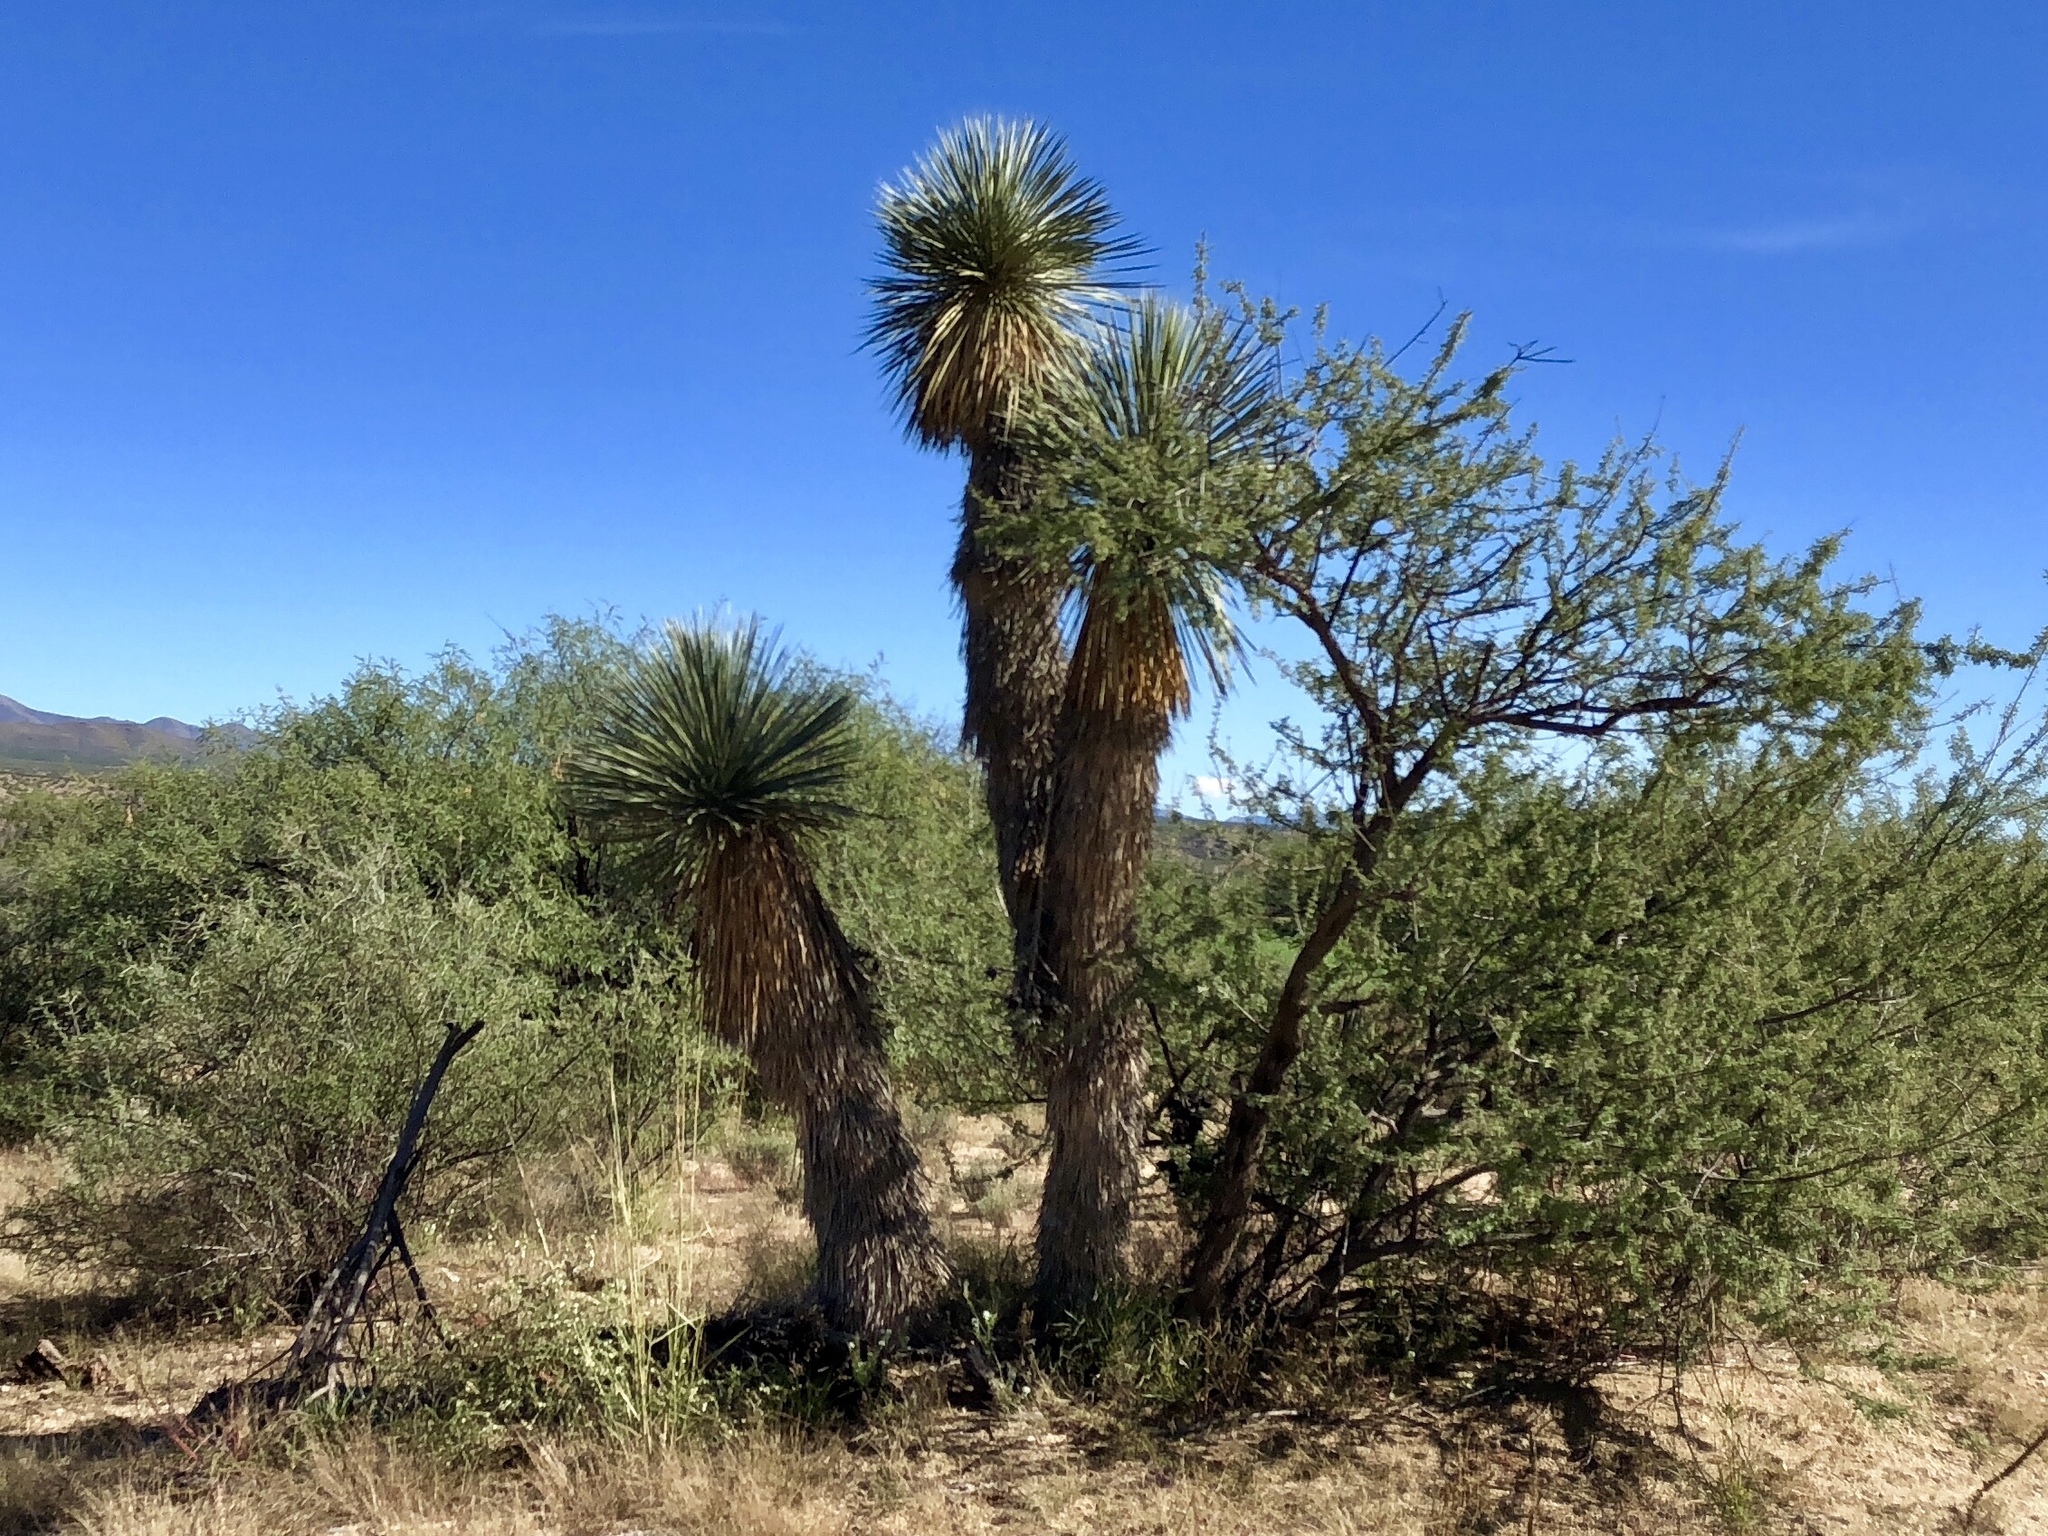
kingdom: Plantae
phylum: Tracheophyta
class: Liliopsida
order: Asparagales
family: Asparagaceae
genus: Yucca
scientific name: Yucca elata
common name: Palmella
